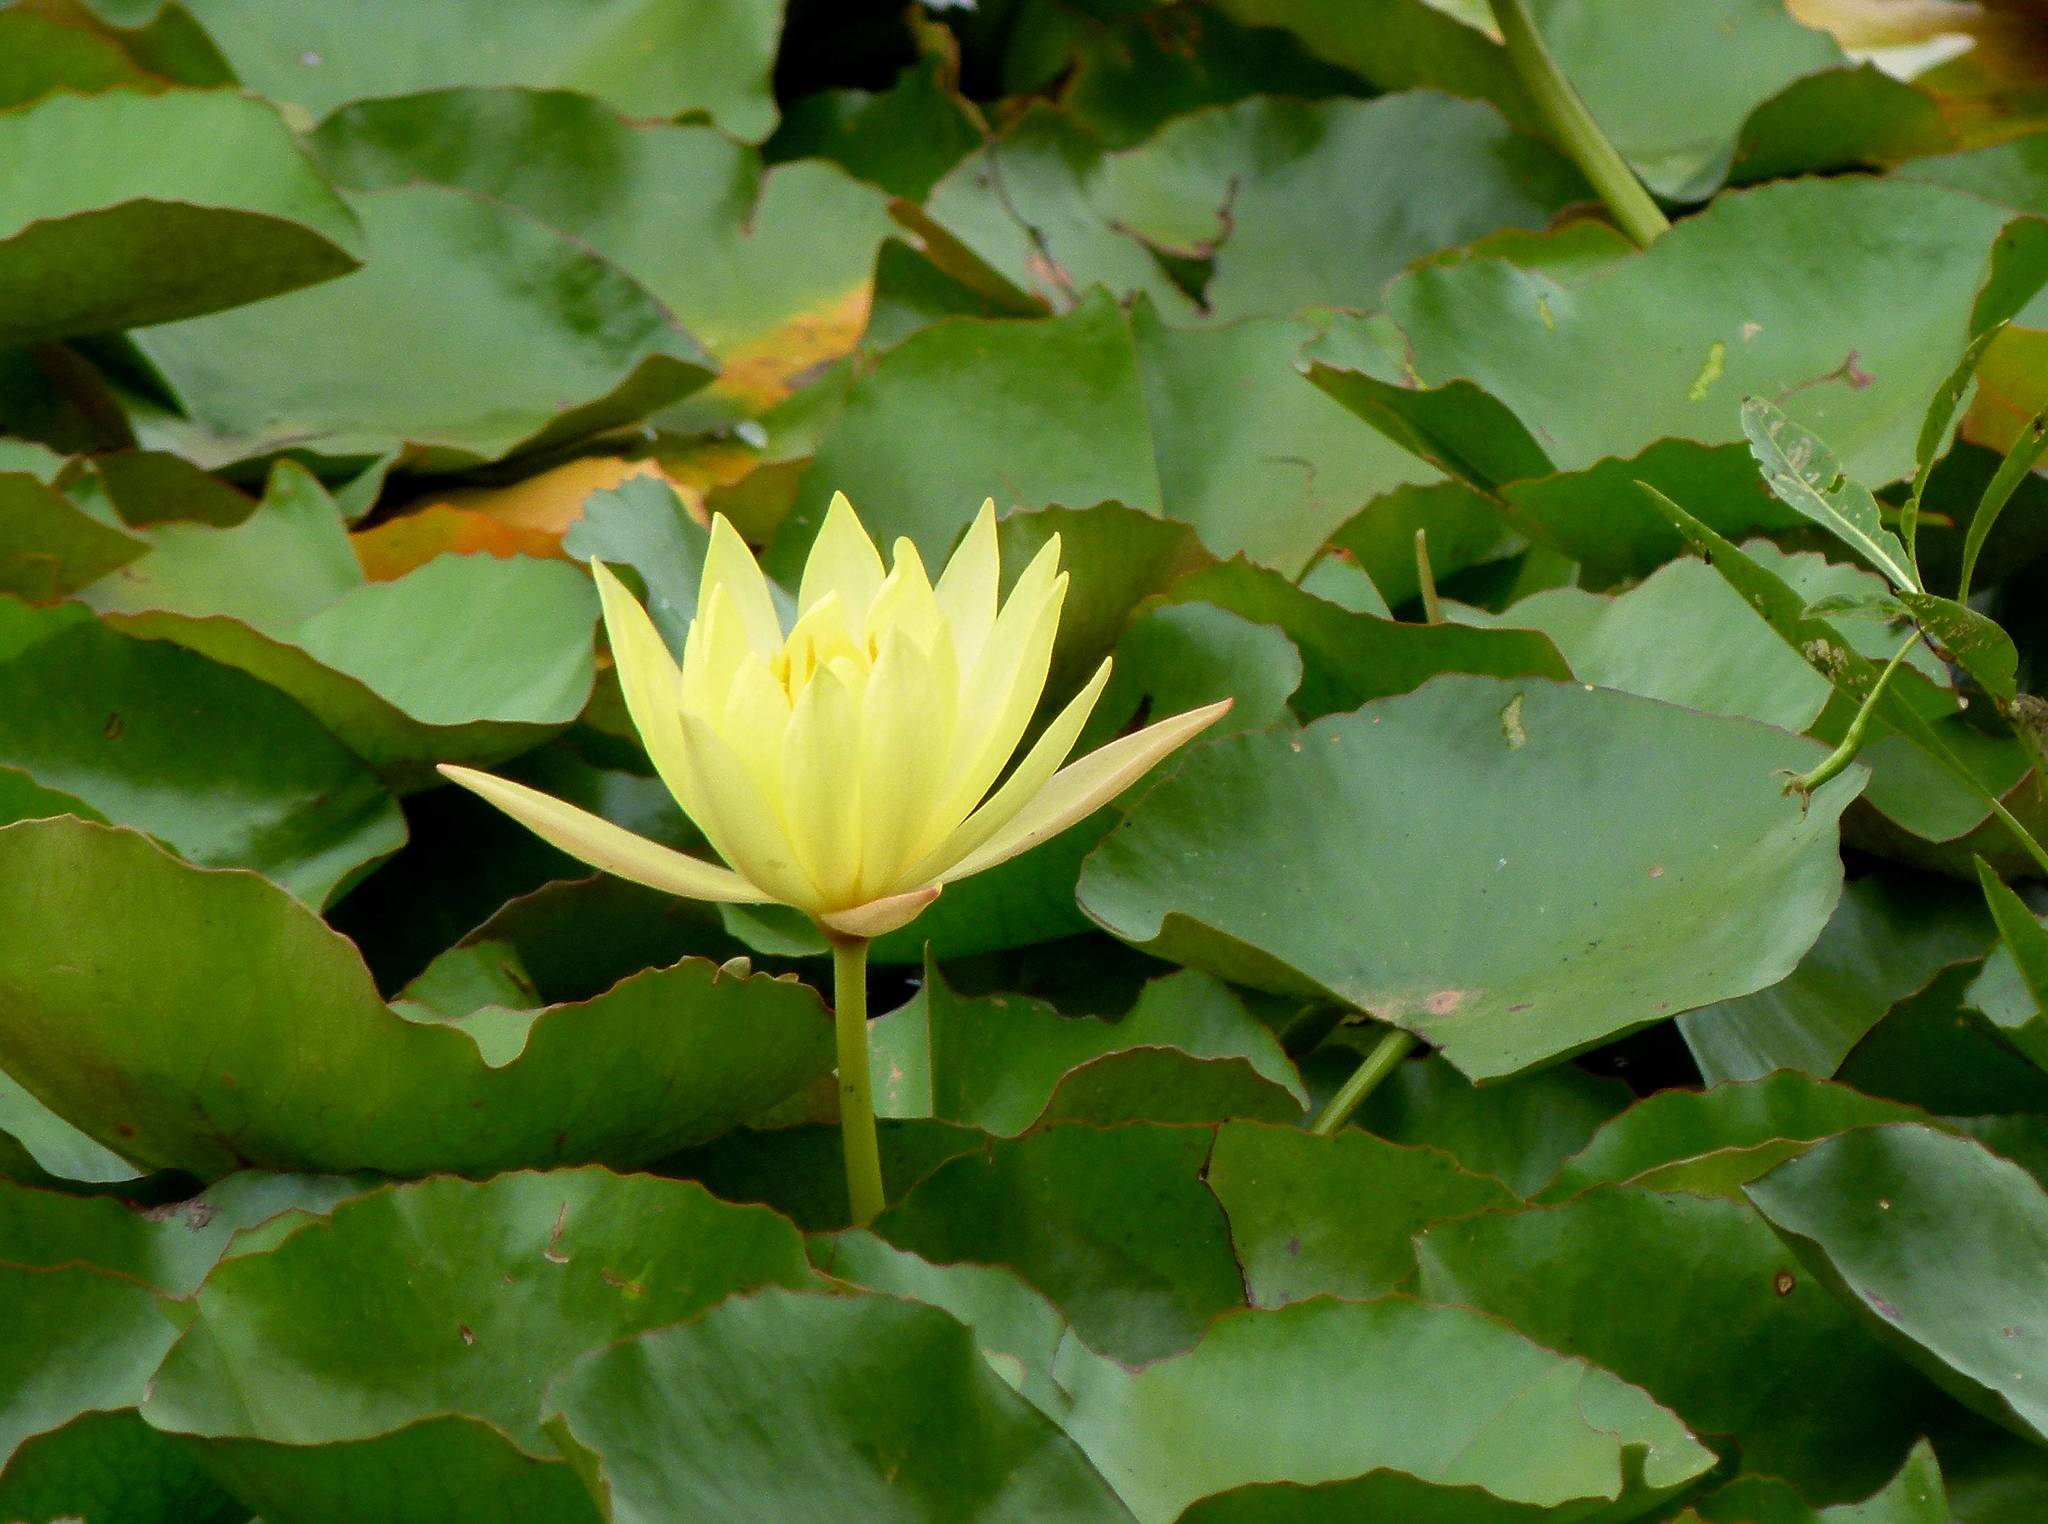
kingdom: Plantae
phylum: Tracheophyta
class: Magnoliopsida
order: Nymphaeales
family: Nymphaeaceae
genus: Nymphaea
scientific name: Nymphaea mexicana
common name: Banana water-lily
